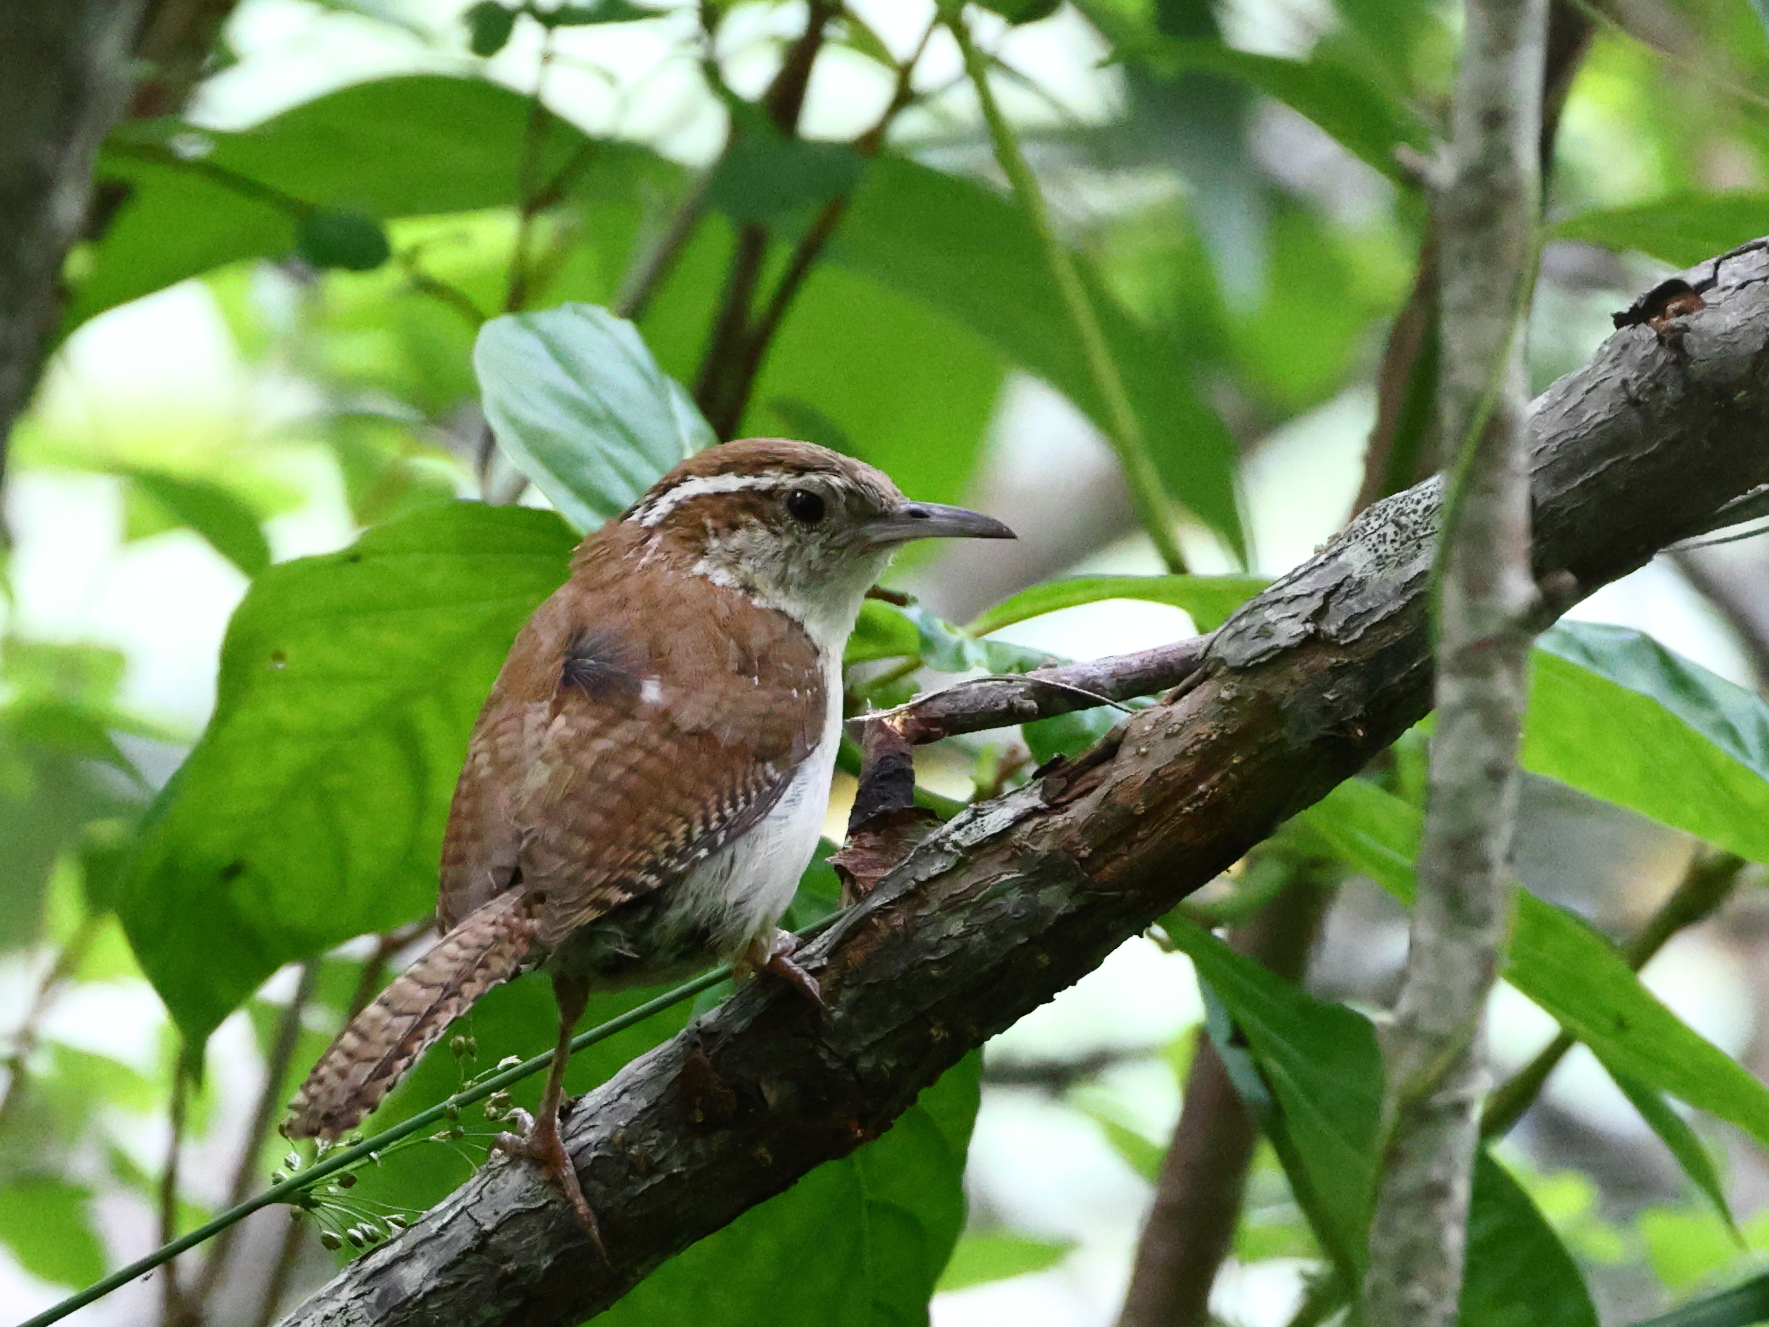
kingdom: Animalia
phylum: Chordata
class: Aves
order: Passeriformes
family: Troglodytidae
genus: Thryothorus
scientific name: Thryothorus ludovicianus
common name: Carolina wren
